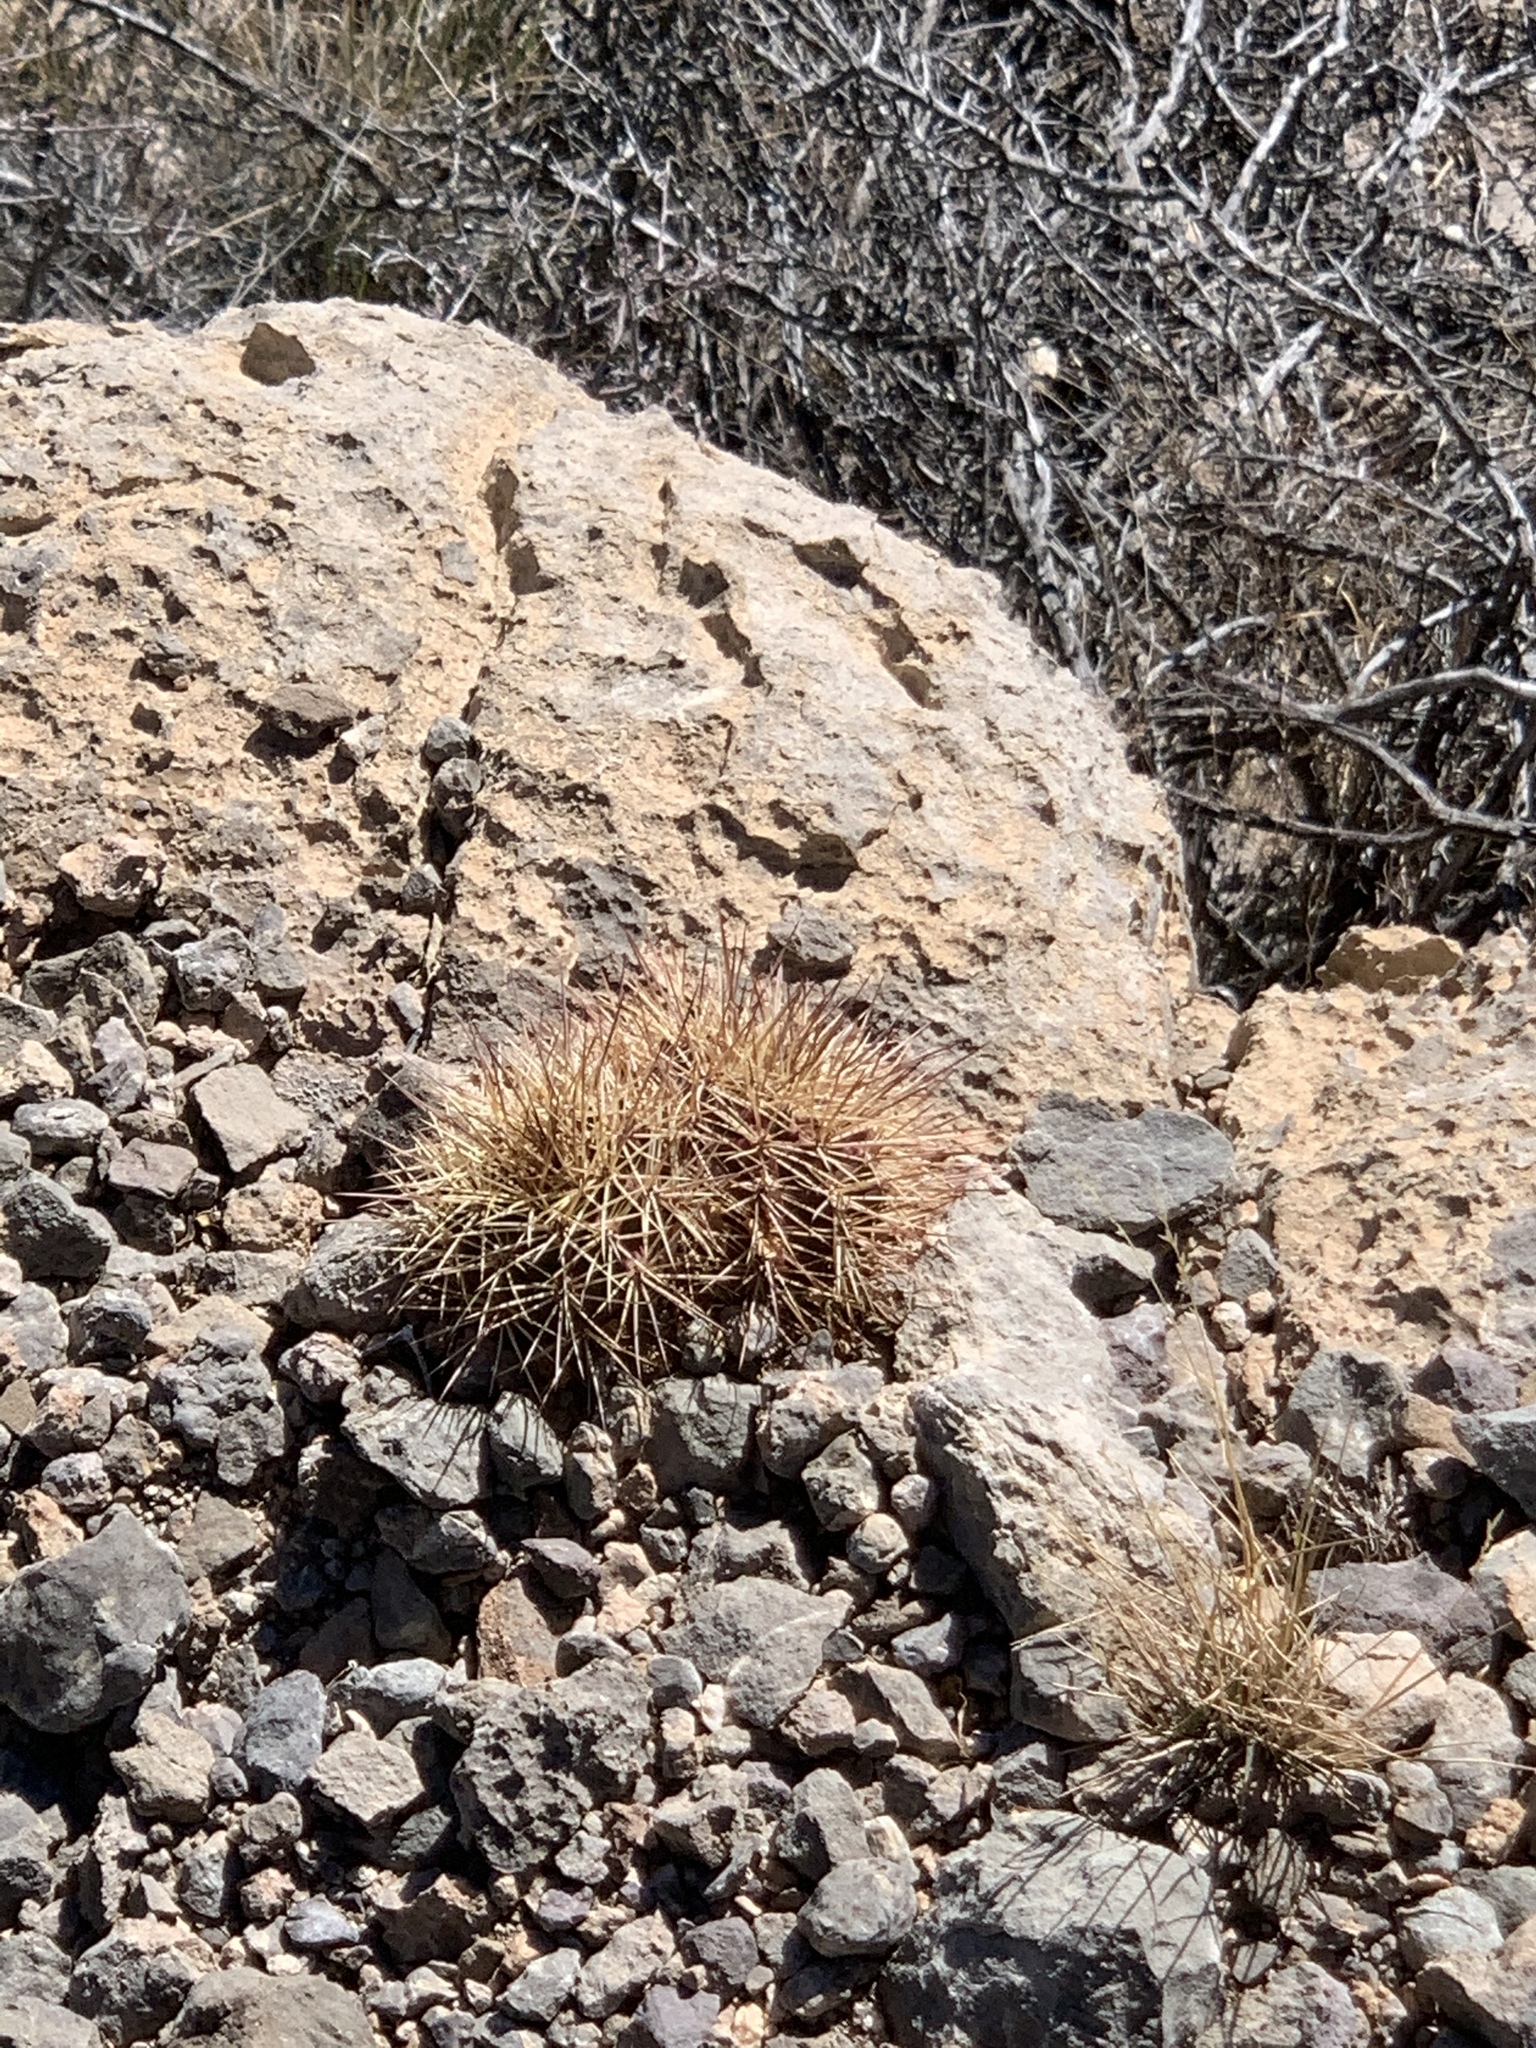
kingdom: Plantae
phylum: Tracheophyta
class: Magnoliopsida
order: Caryophyllales
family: Cactaceae
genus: Echinocereus
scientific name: Echinocereus coccineus
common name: Scarlet hedgehog cactus
